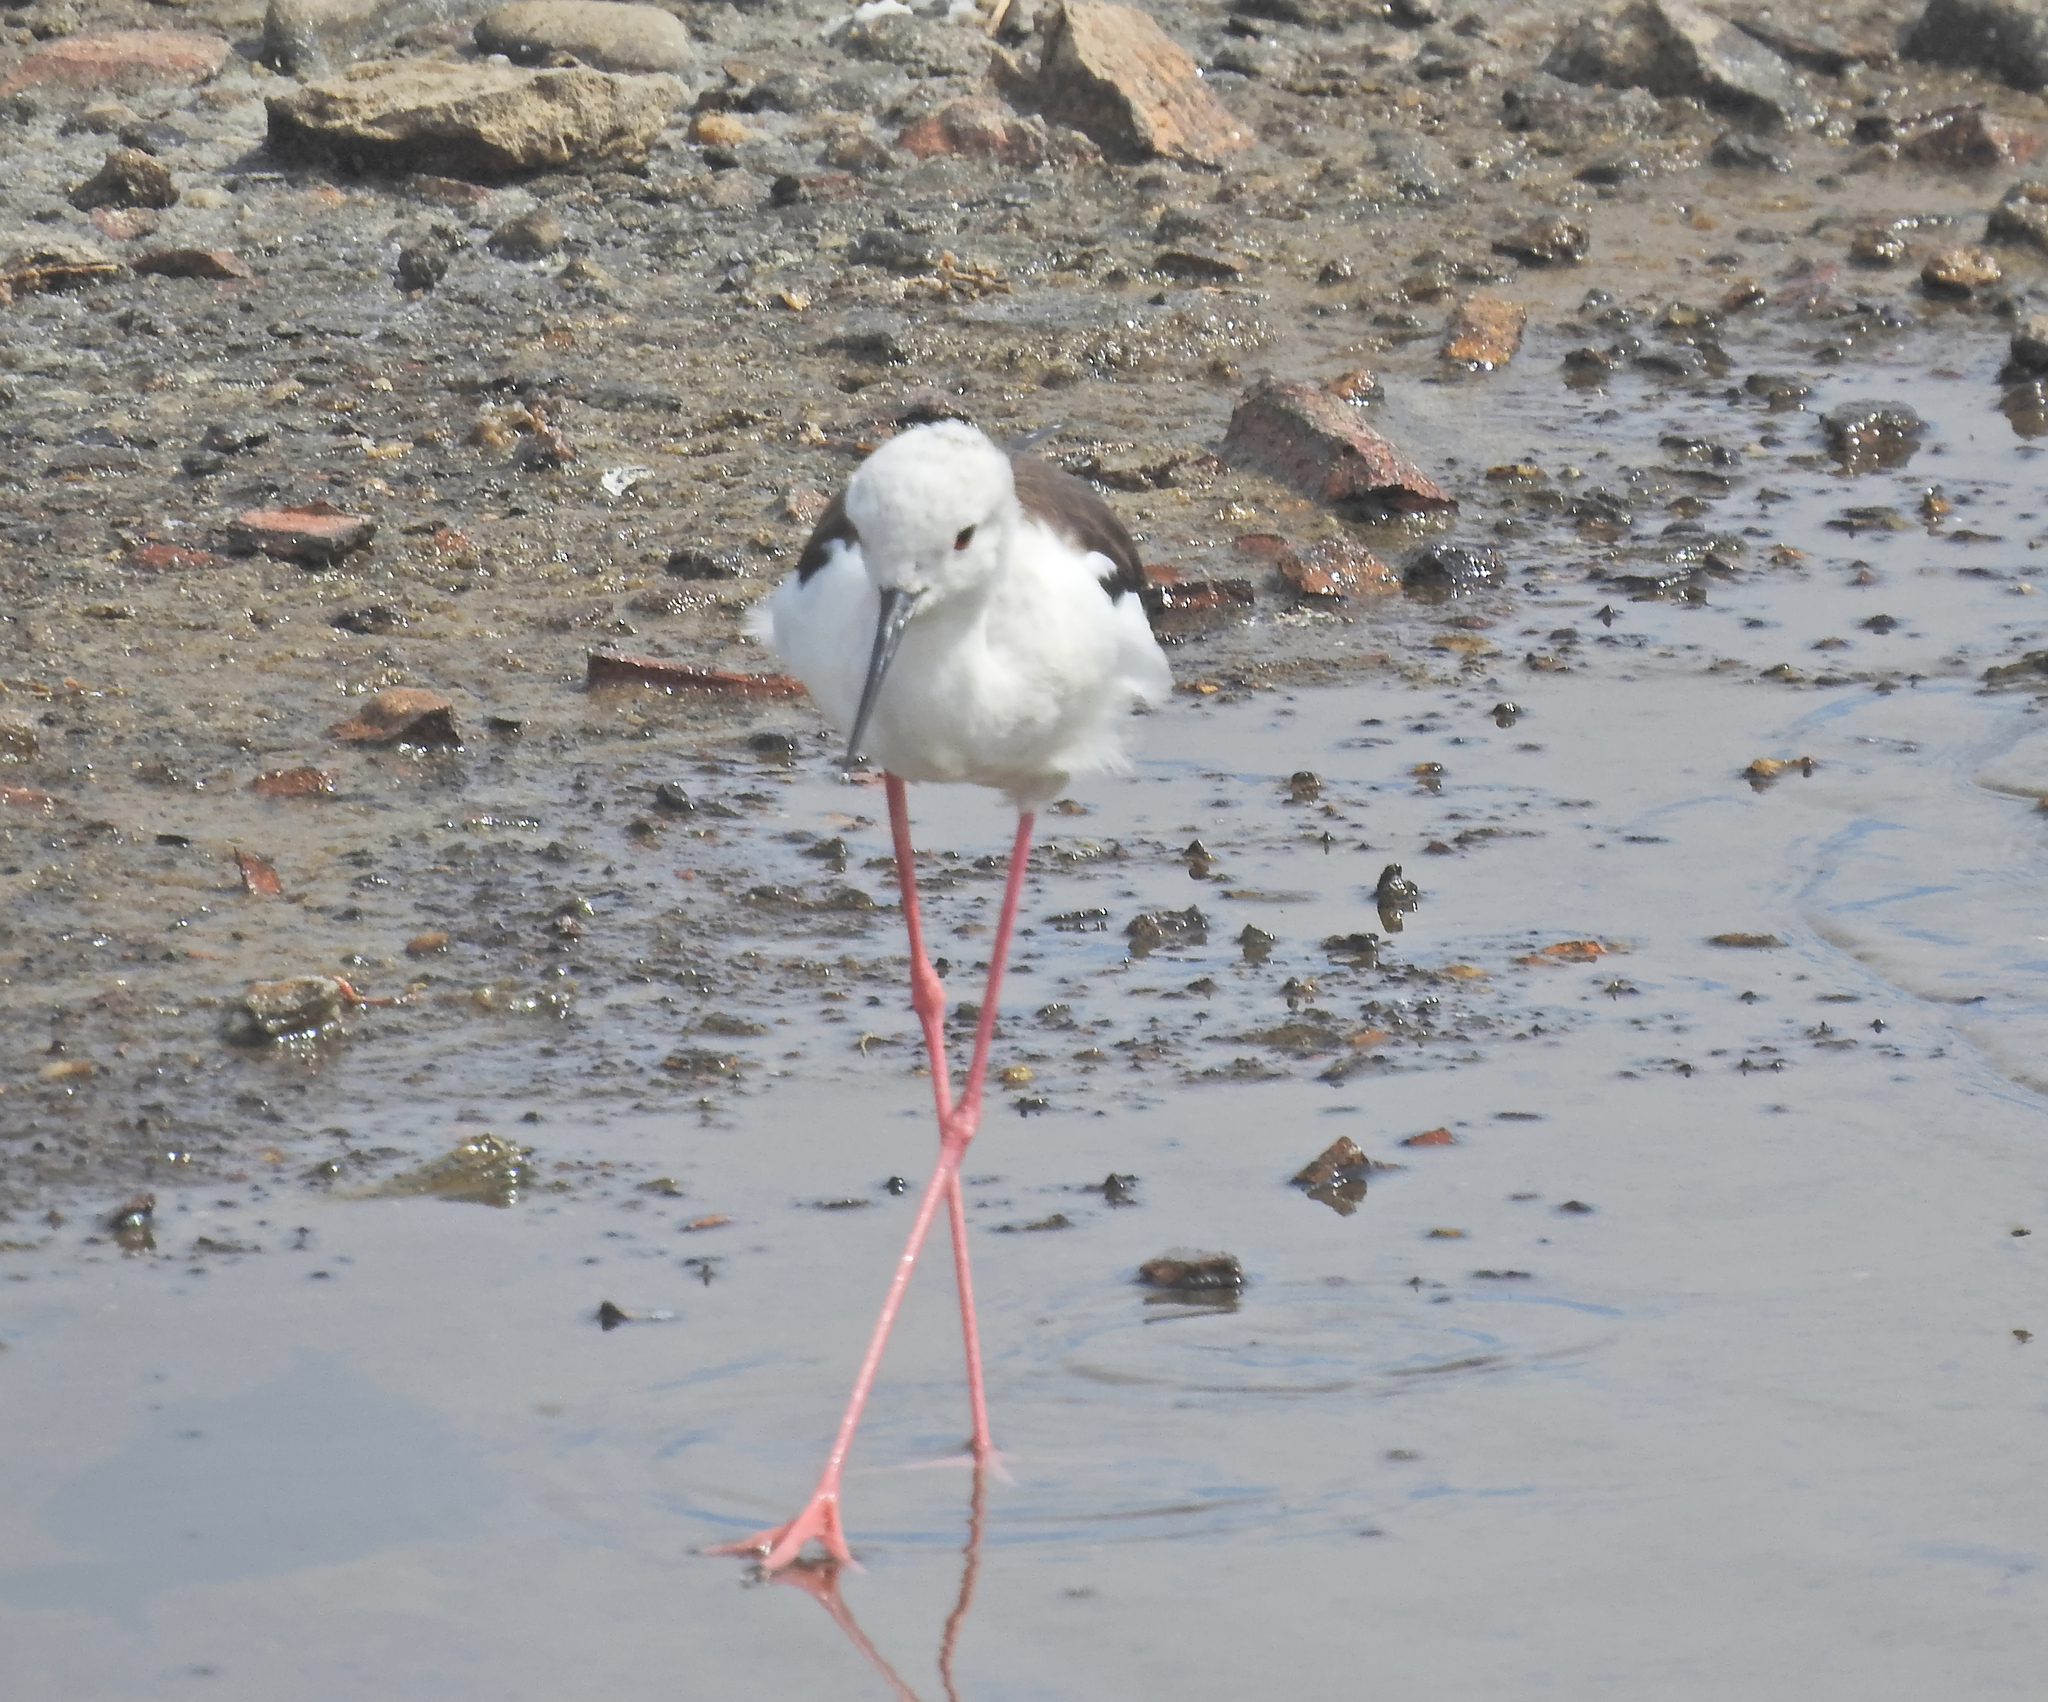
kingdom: Animalia
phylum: Chordata
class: Aves
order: Charadriiformes
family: Recurvirostridae
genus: Himantopus
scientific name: Himantopus himantopus
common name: Black-winged stilt
